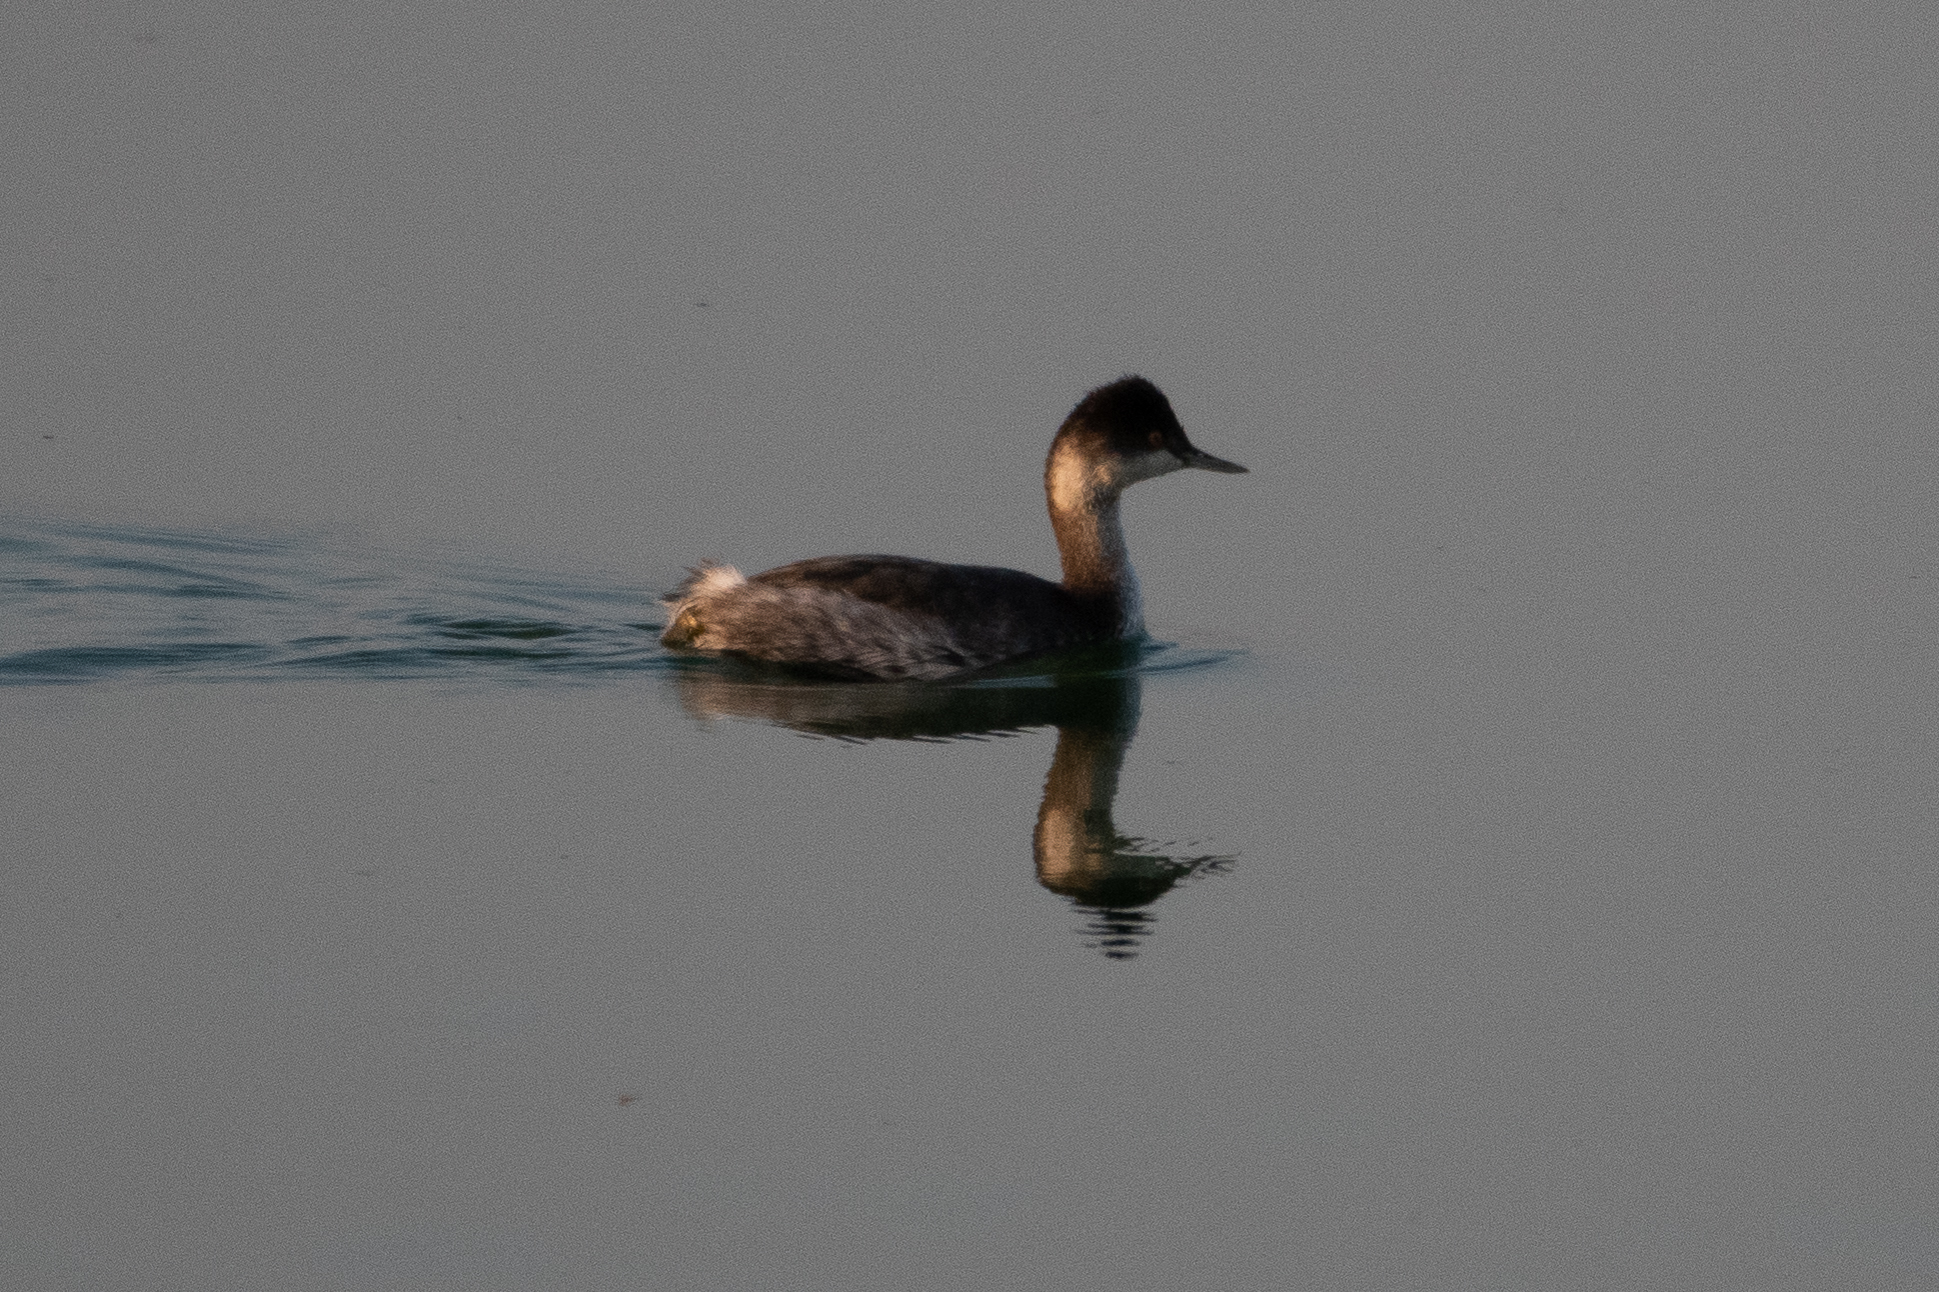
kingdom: Animalia
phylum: Chordata
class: Aves
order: Podicipediformes
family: Podicipedidae
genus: Podiceps
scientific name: Podiceps nigricollis
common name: Black-necked grebe
